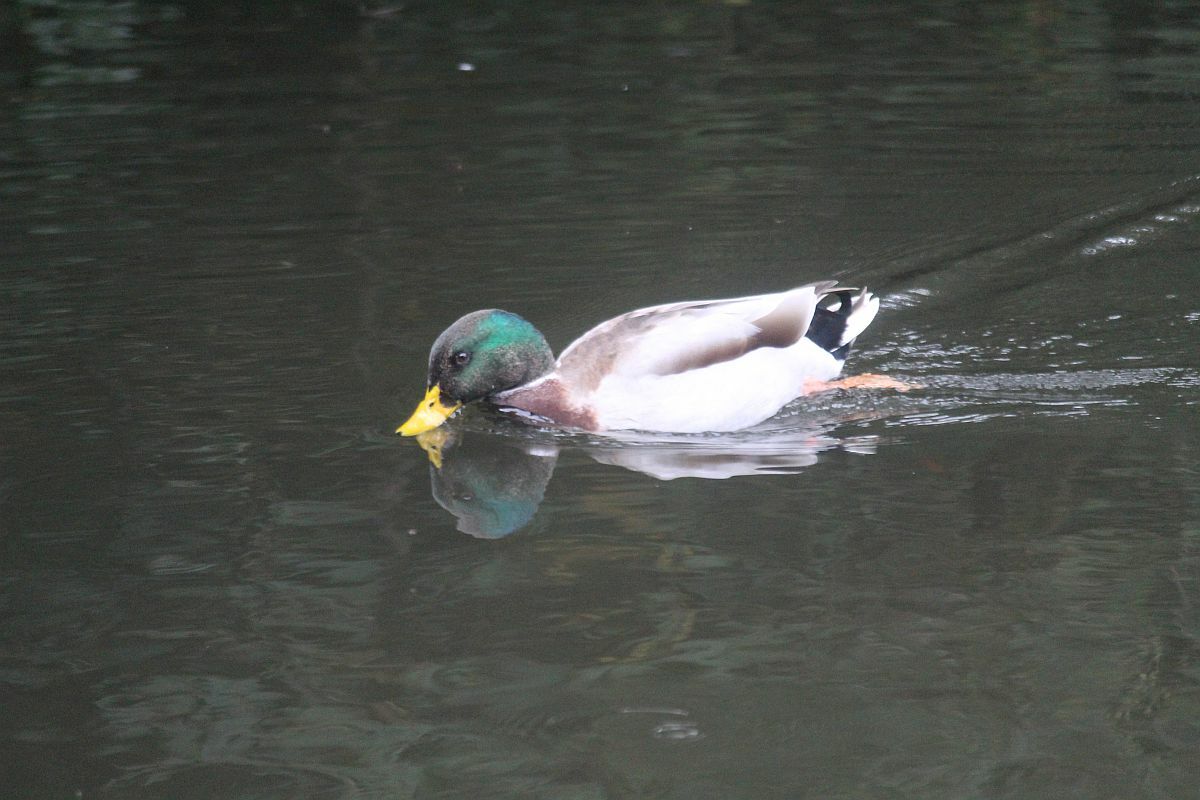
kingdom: Animalia
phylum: Chordata
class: Aves
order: Anseriformes
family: Anatidae
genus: Anas
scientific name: Anas platyrhynchos
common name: Mallard
